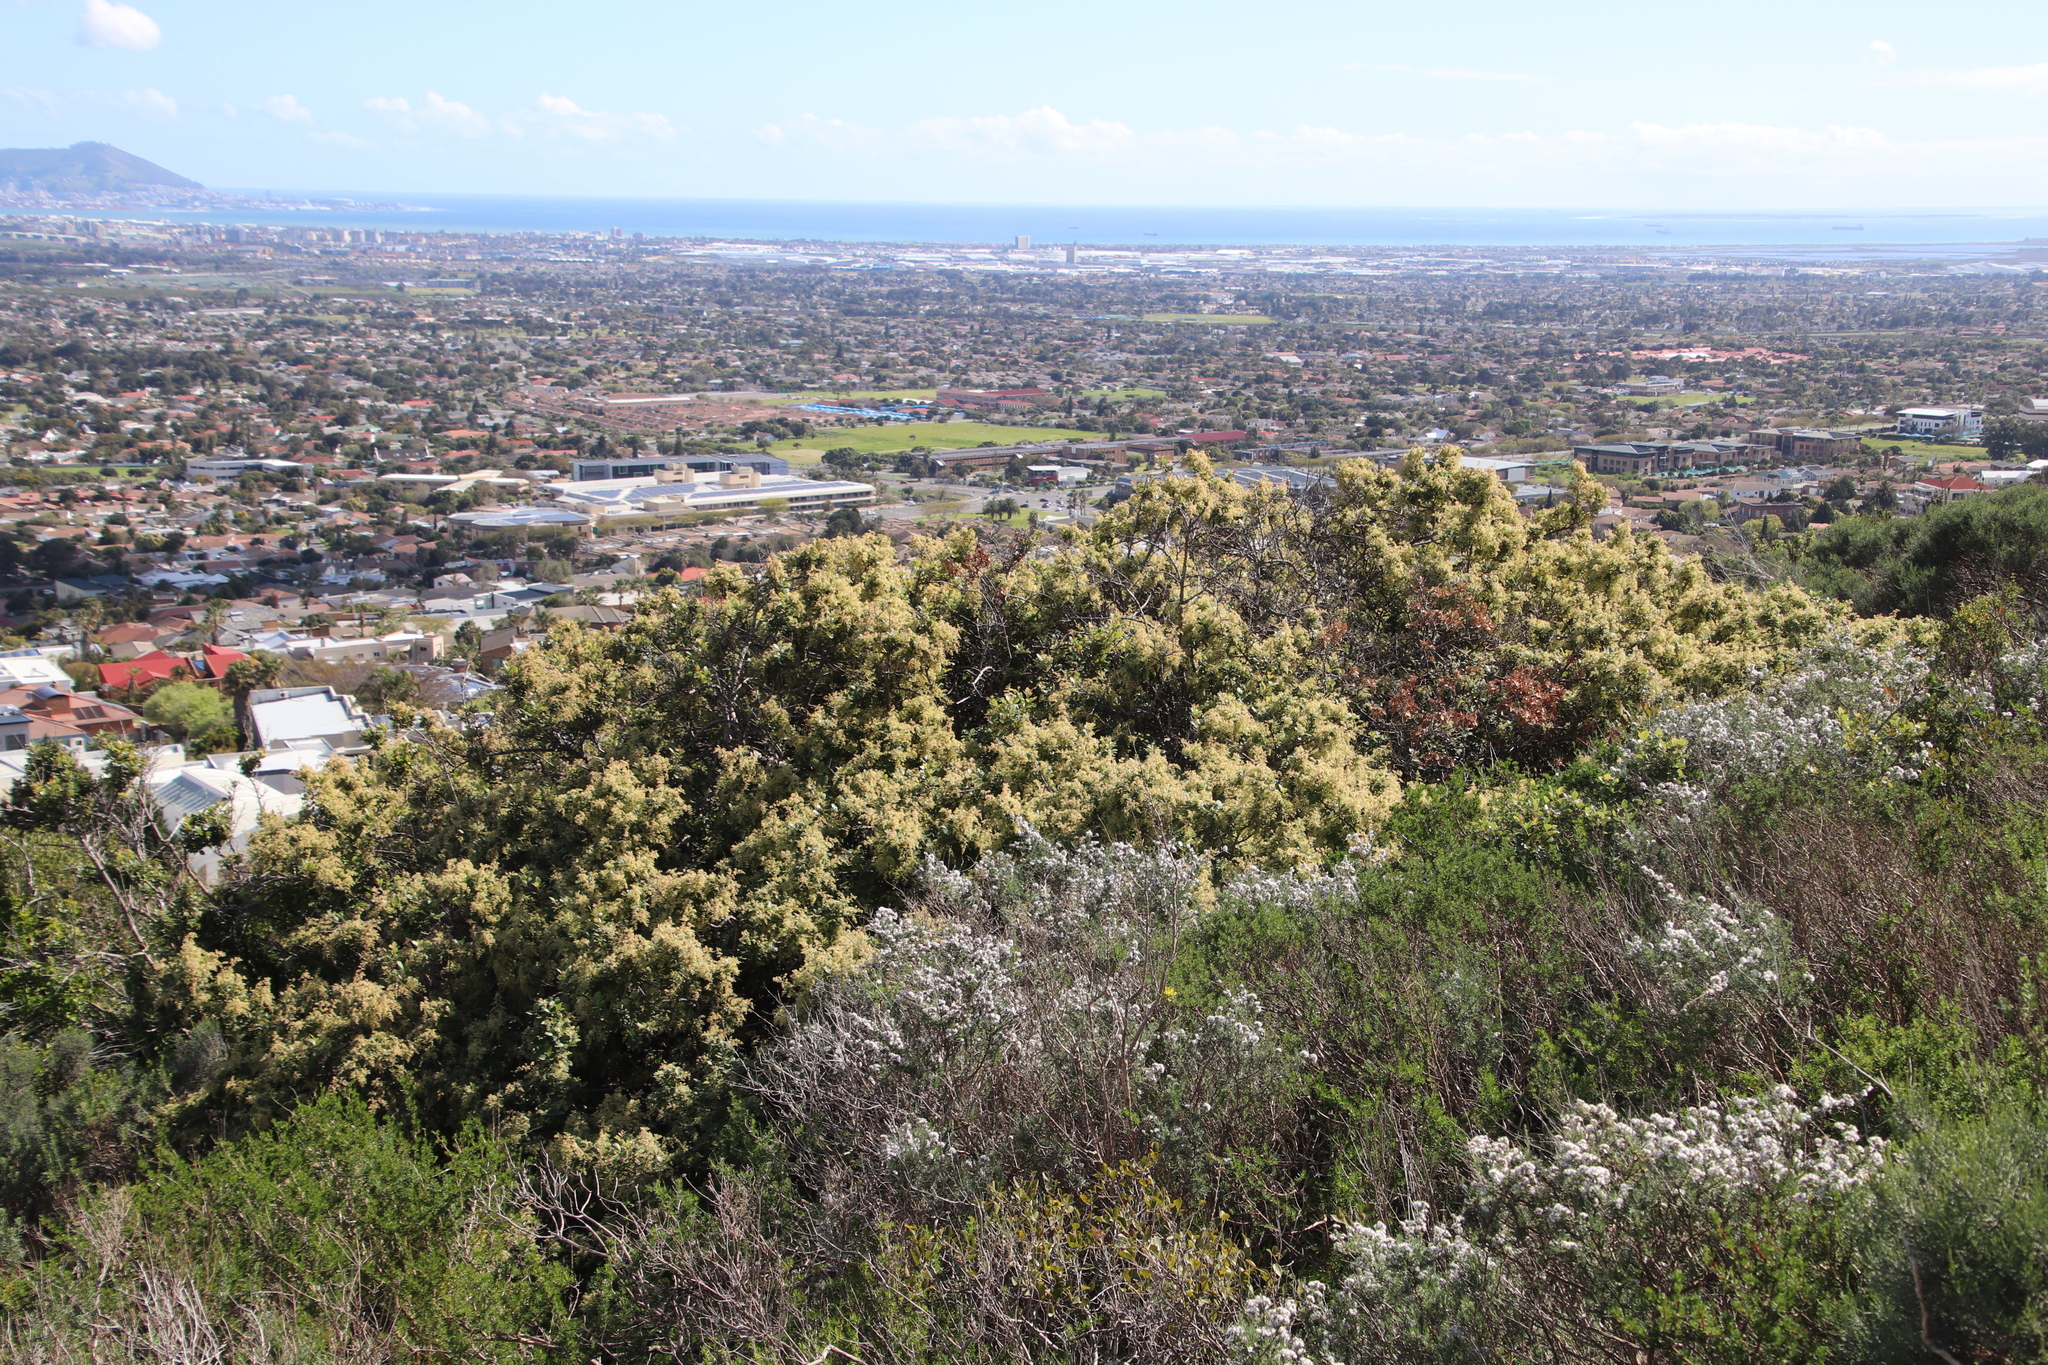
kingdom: Plantae
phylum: Tracheophyta
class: Magnoliopsida
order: Sapindales
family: Anacardiaceae
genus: Searsia
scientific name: Searsia tomentosa
